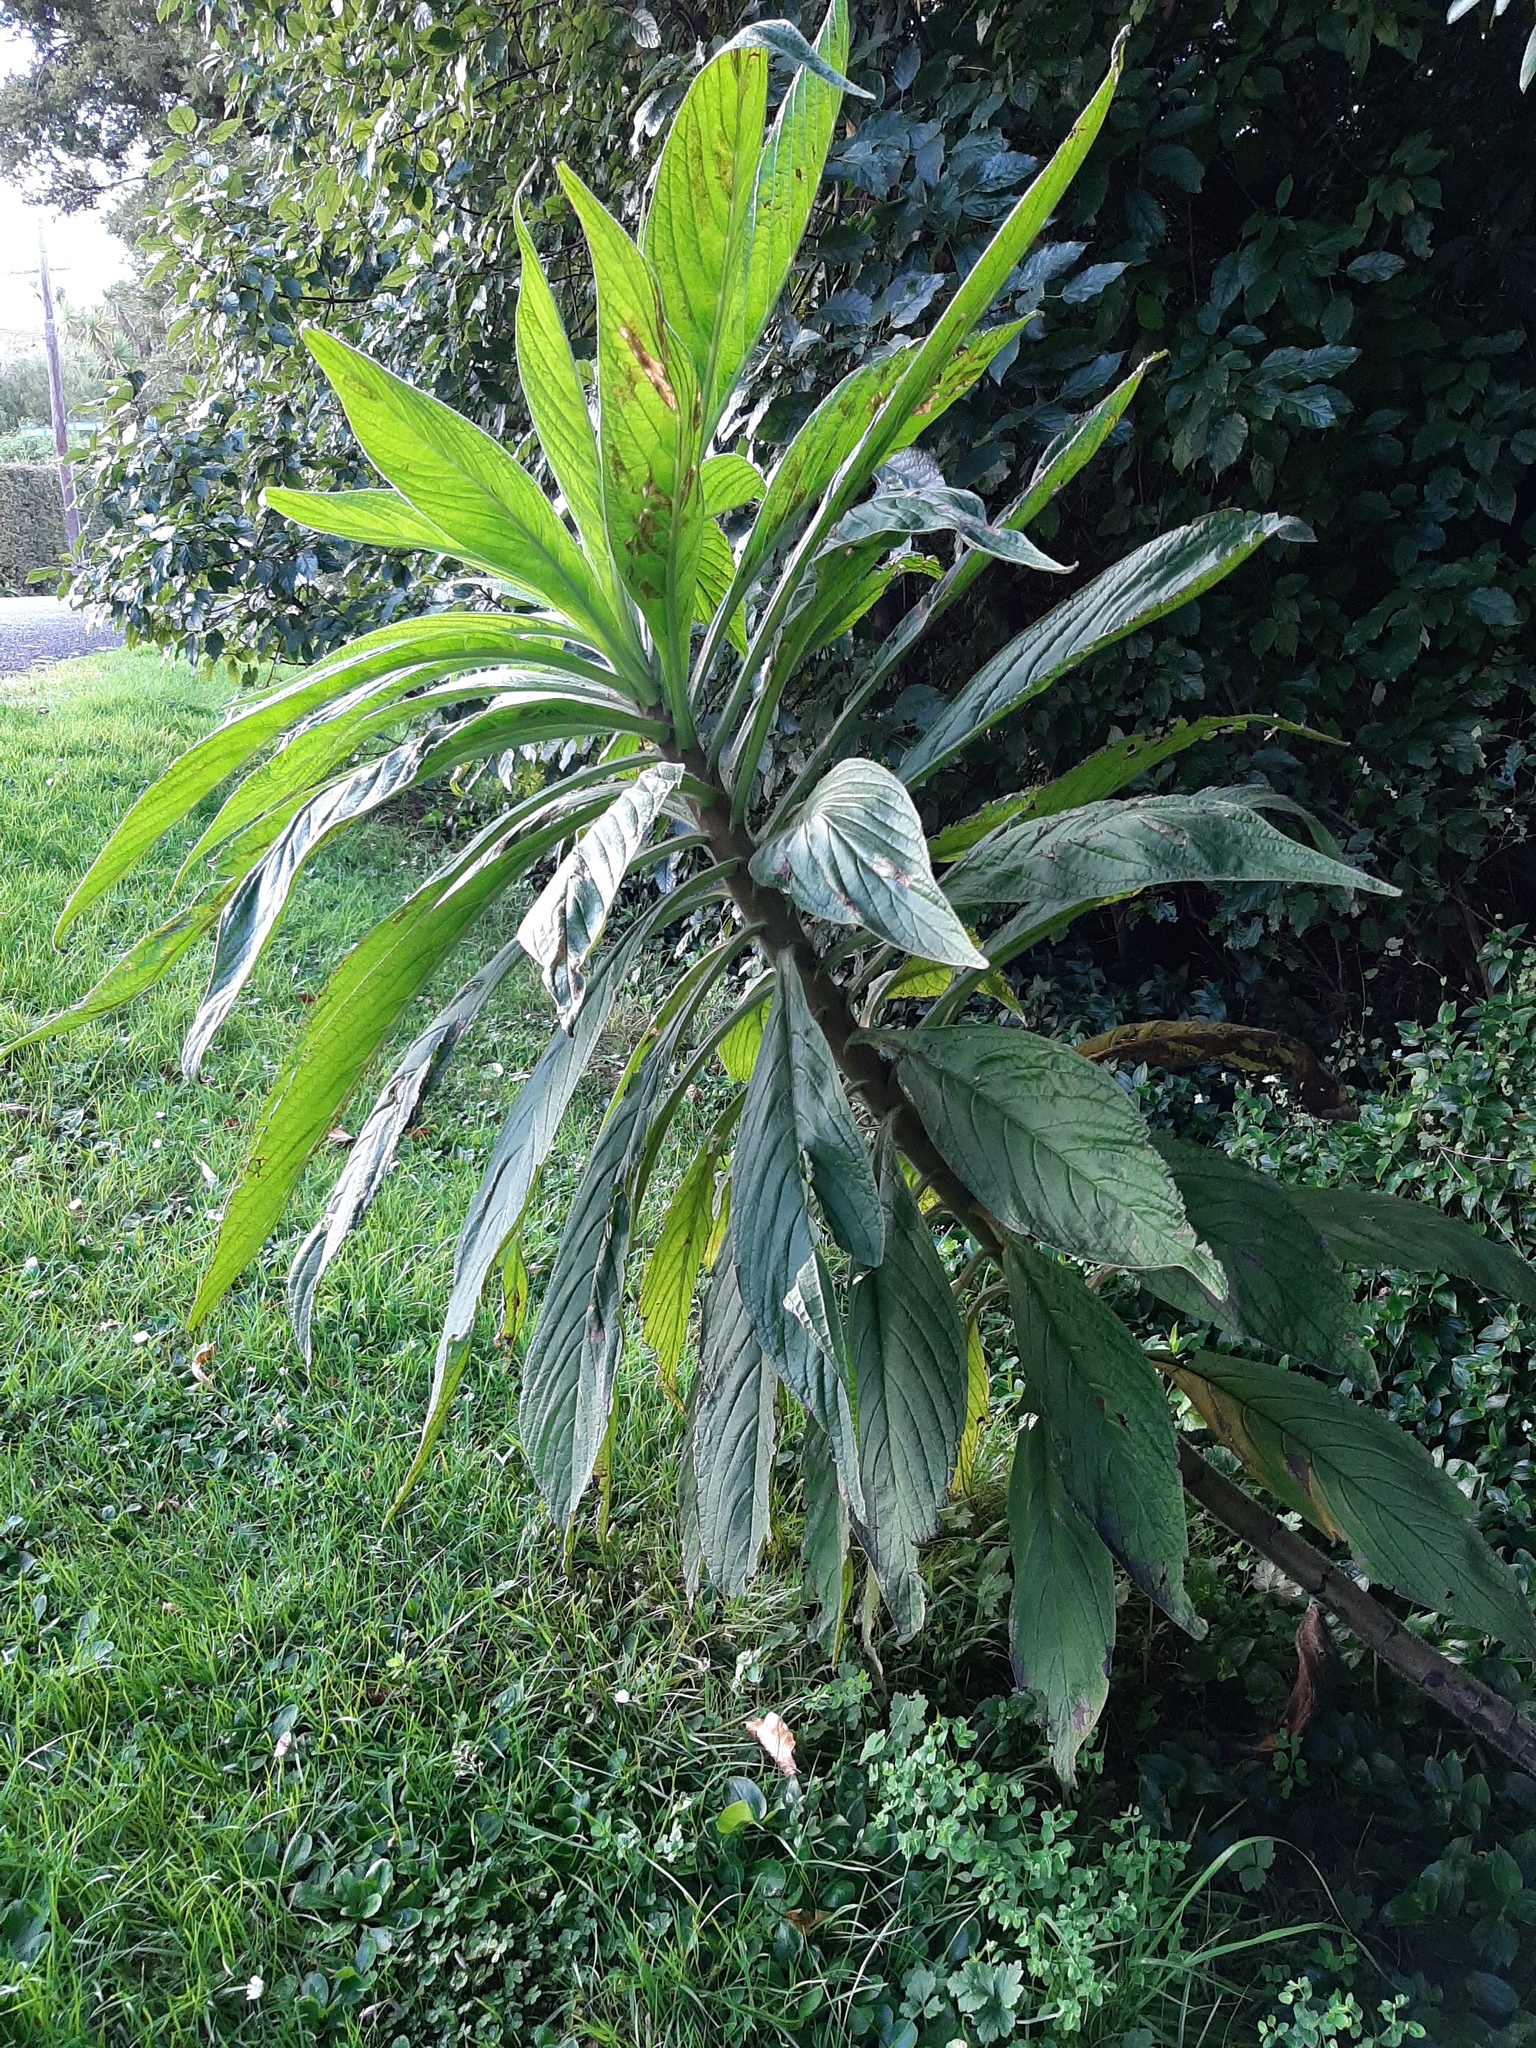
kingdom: Plantae
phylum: Tracheophyta
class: Magnoliopsida
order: Boraginales
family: Boraginaceae
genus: Echium
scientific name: Echium pininana
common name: Giant viper's-bugloss
